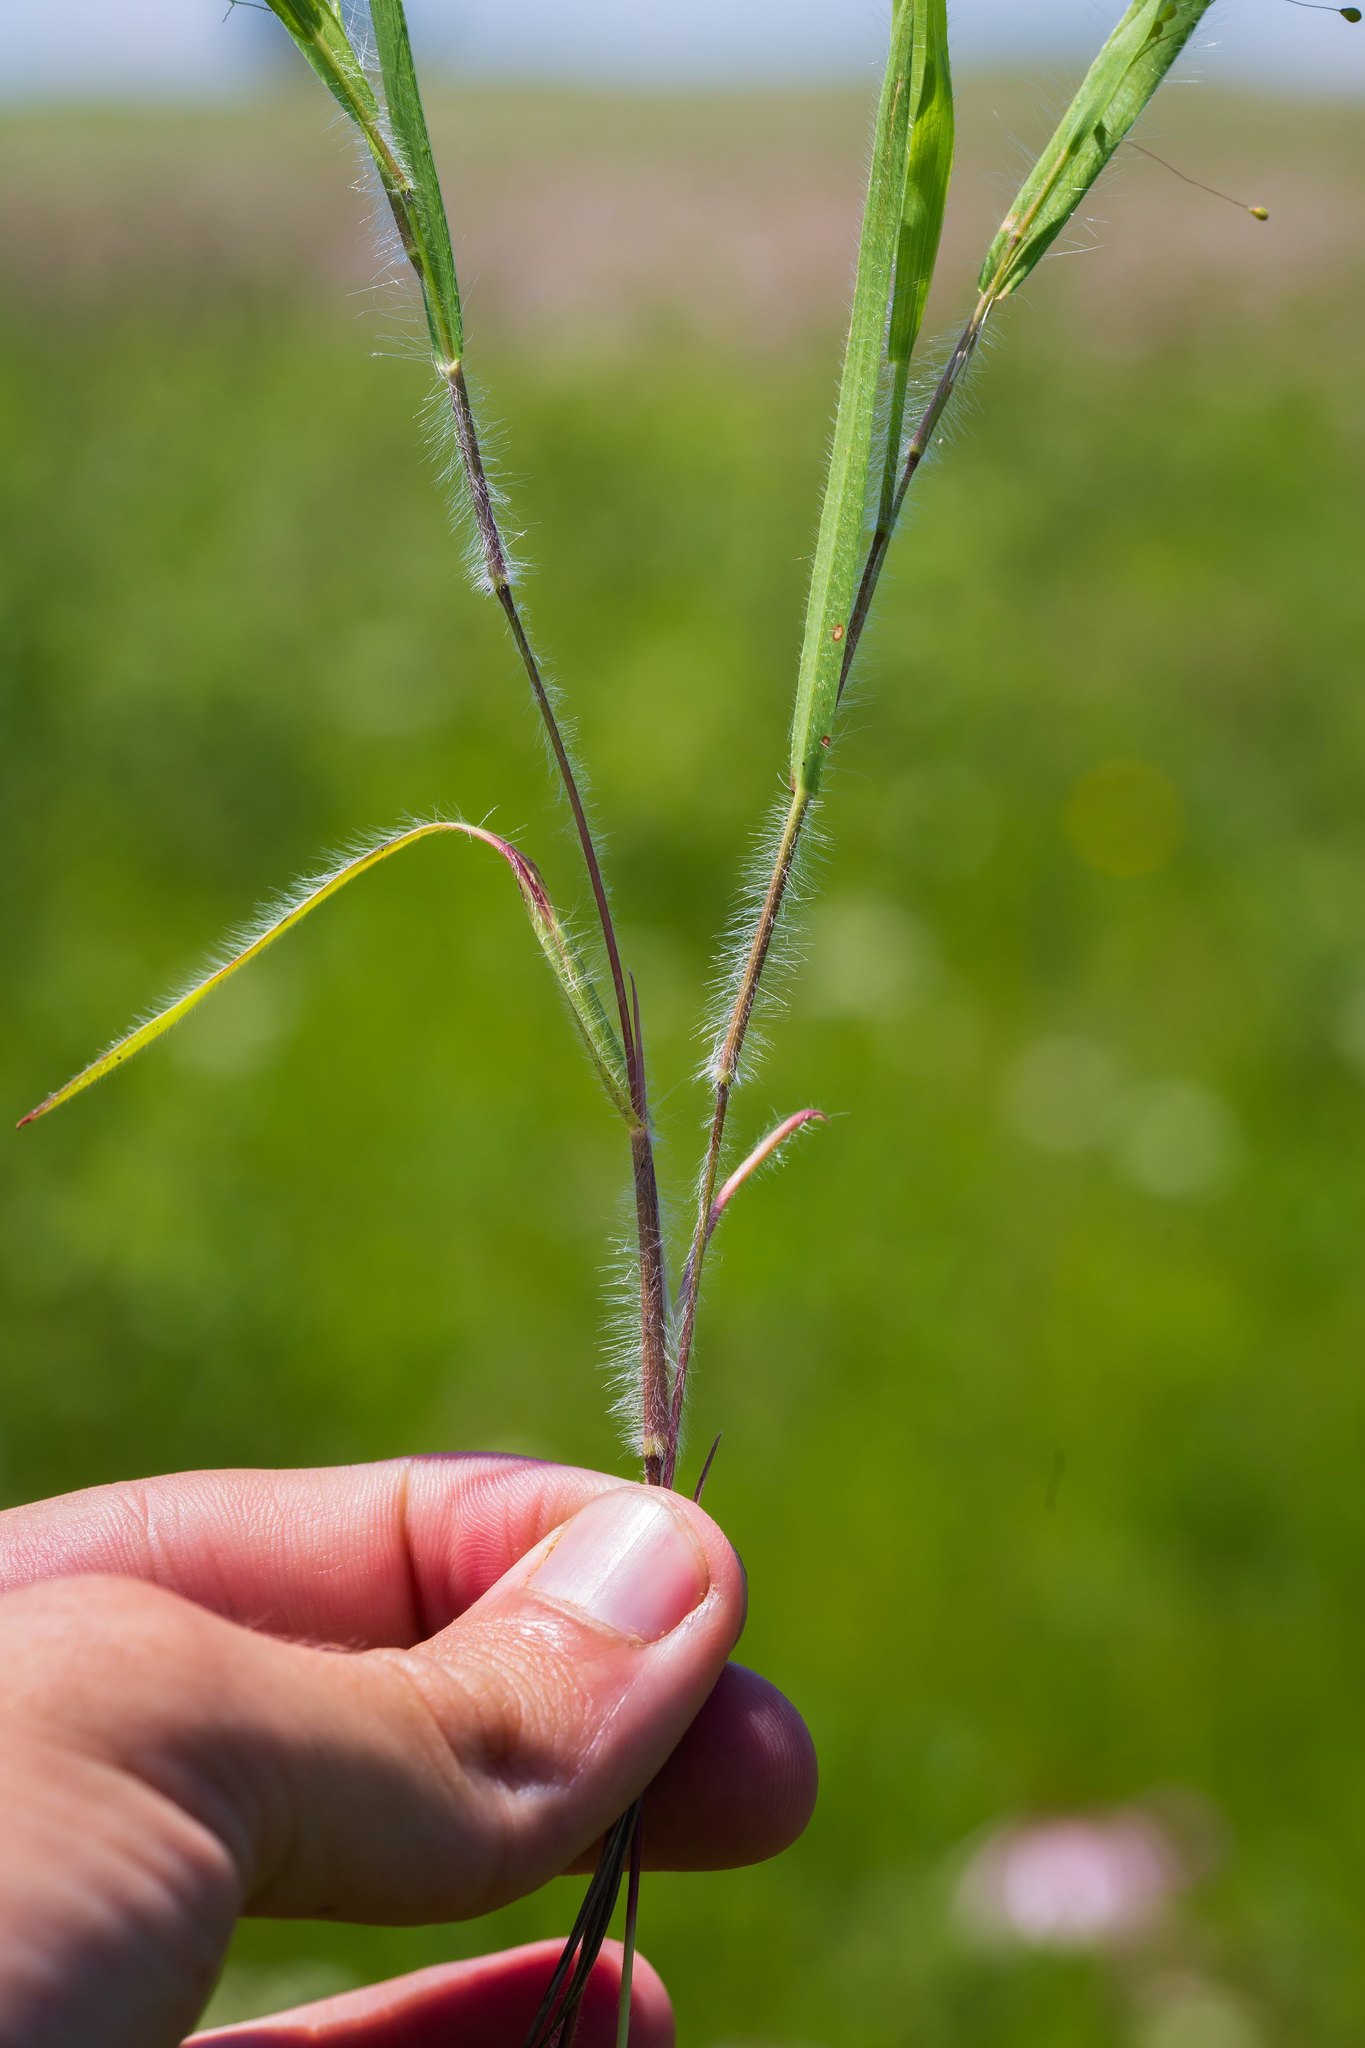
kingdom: Plantae
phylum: Tracheophyta
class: Liliopsida
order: Poales
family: Poaceae
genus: Dichanthelium
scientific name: Dichanthelium praecocius
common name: Early-branching panicgrass
